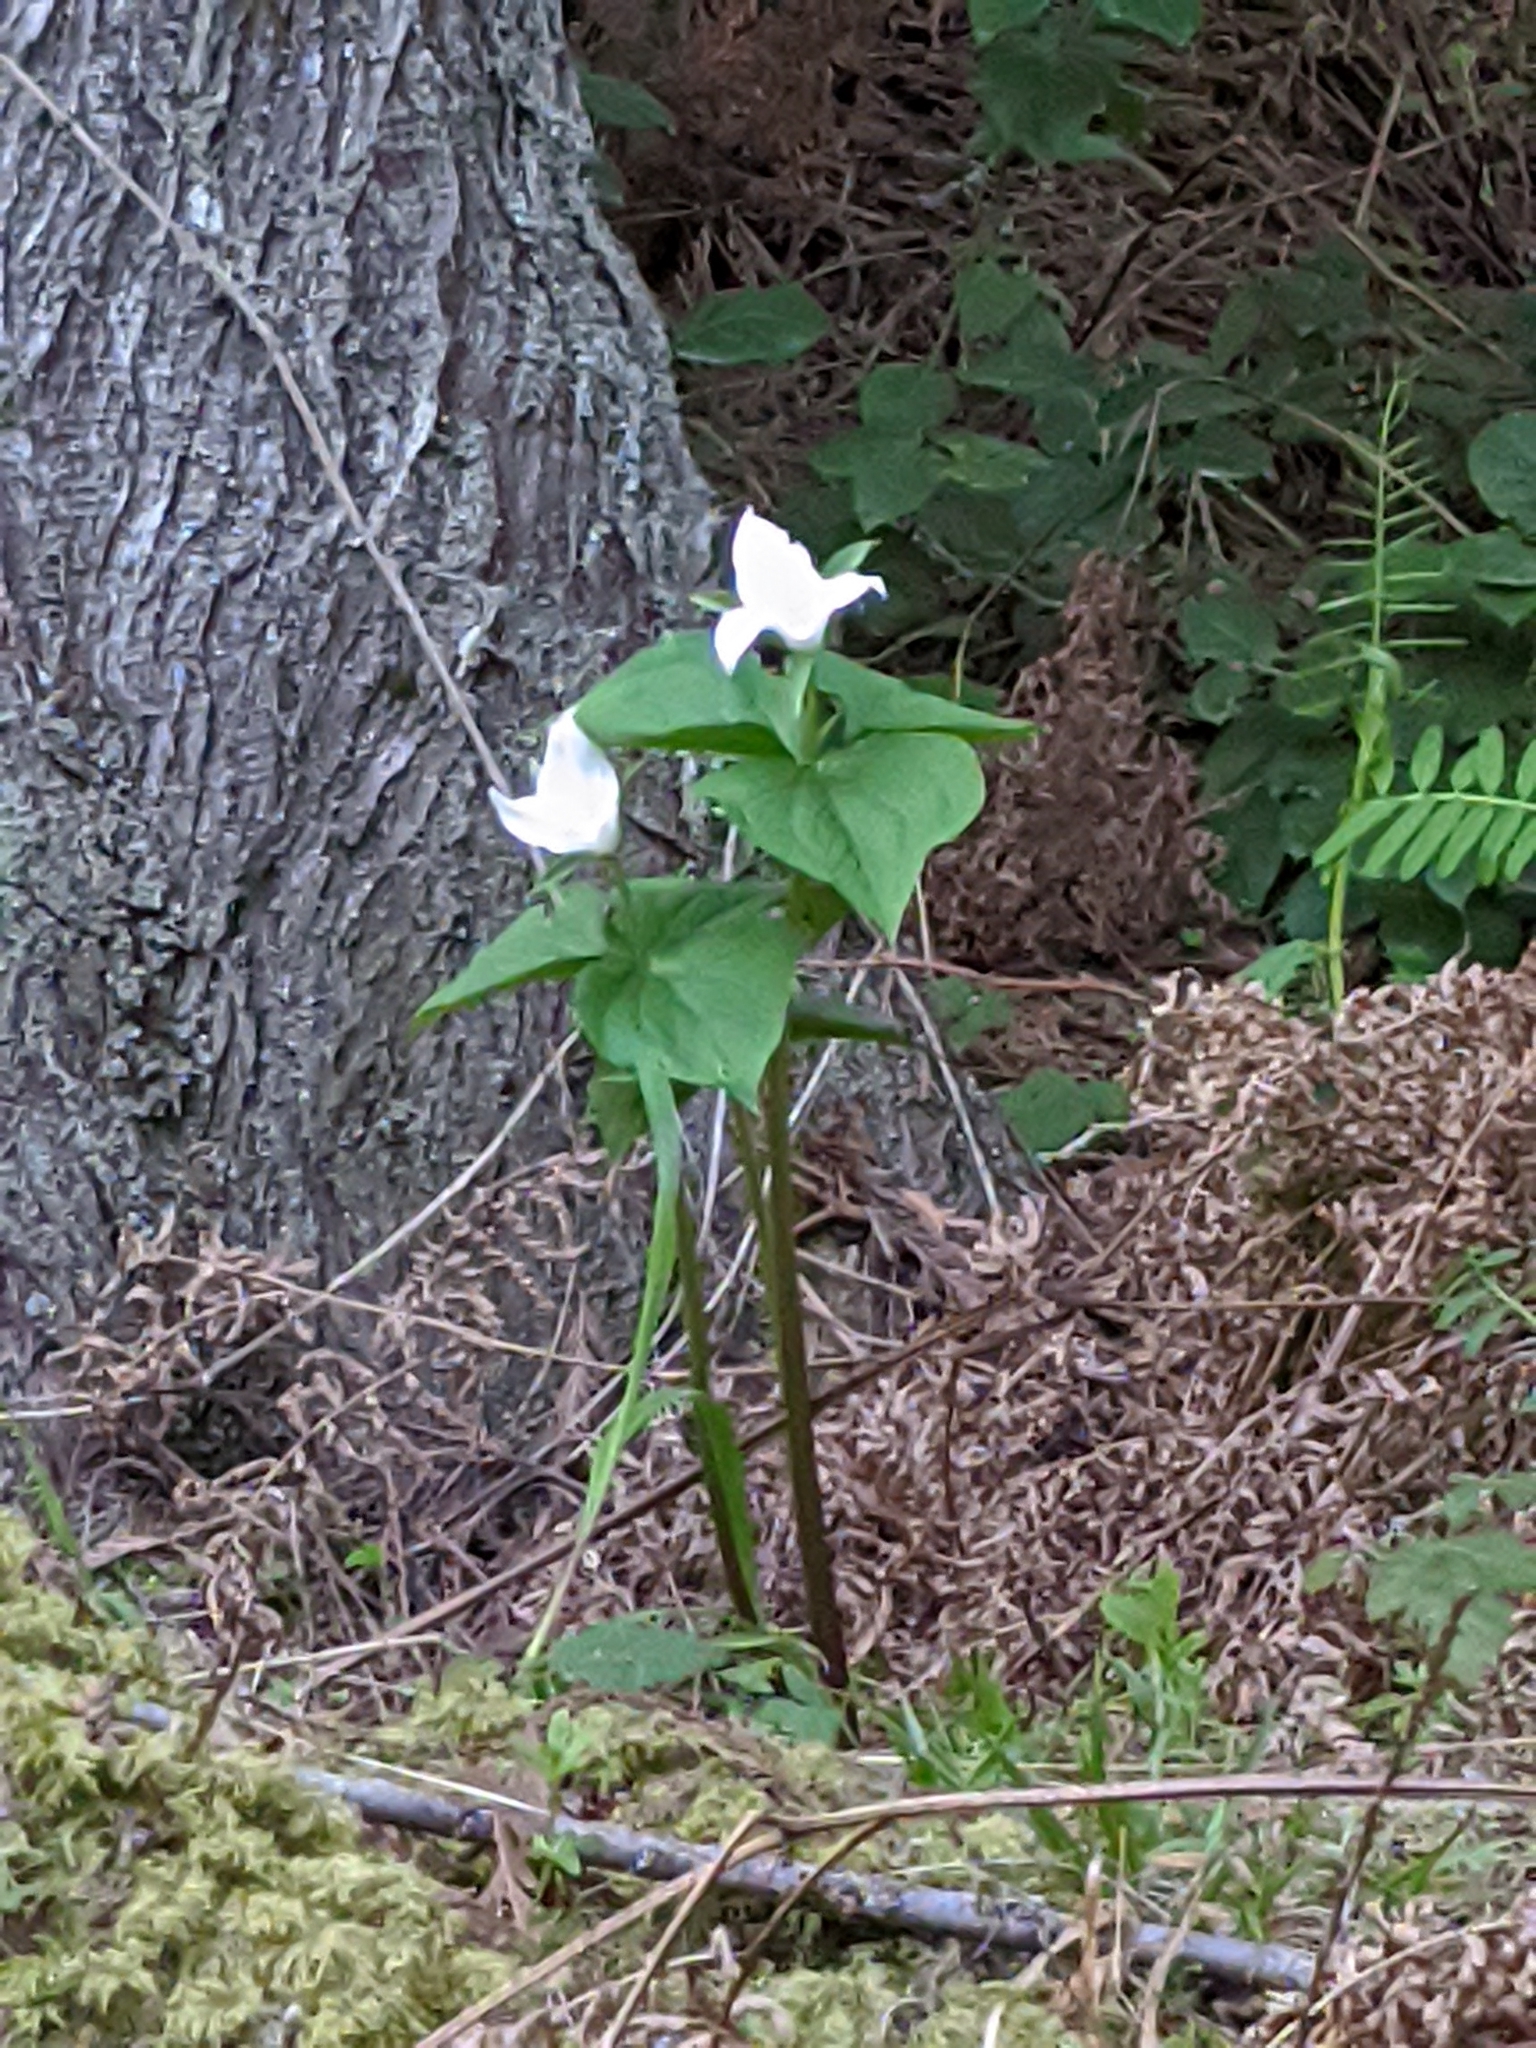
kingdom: Plantae
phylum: Tracheophyta
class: Liliopsida
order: Liliales
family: Melanthiaceae
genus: Trillium
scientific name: Trillium ovatum
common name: Pacific trillium
